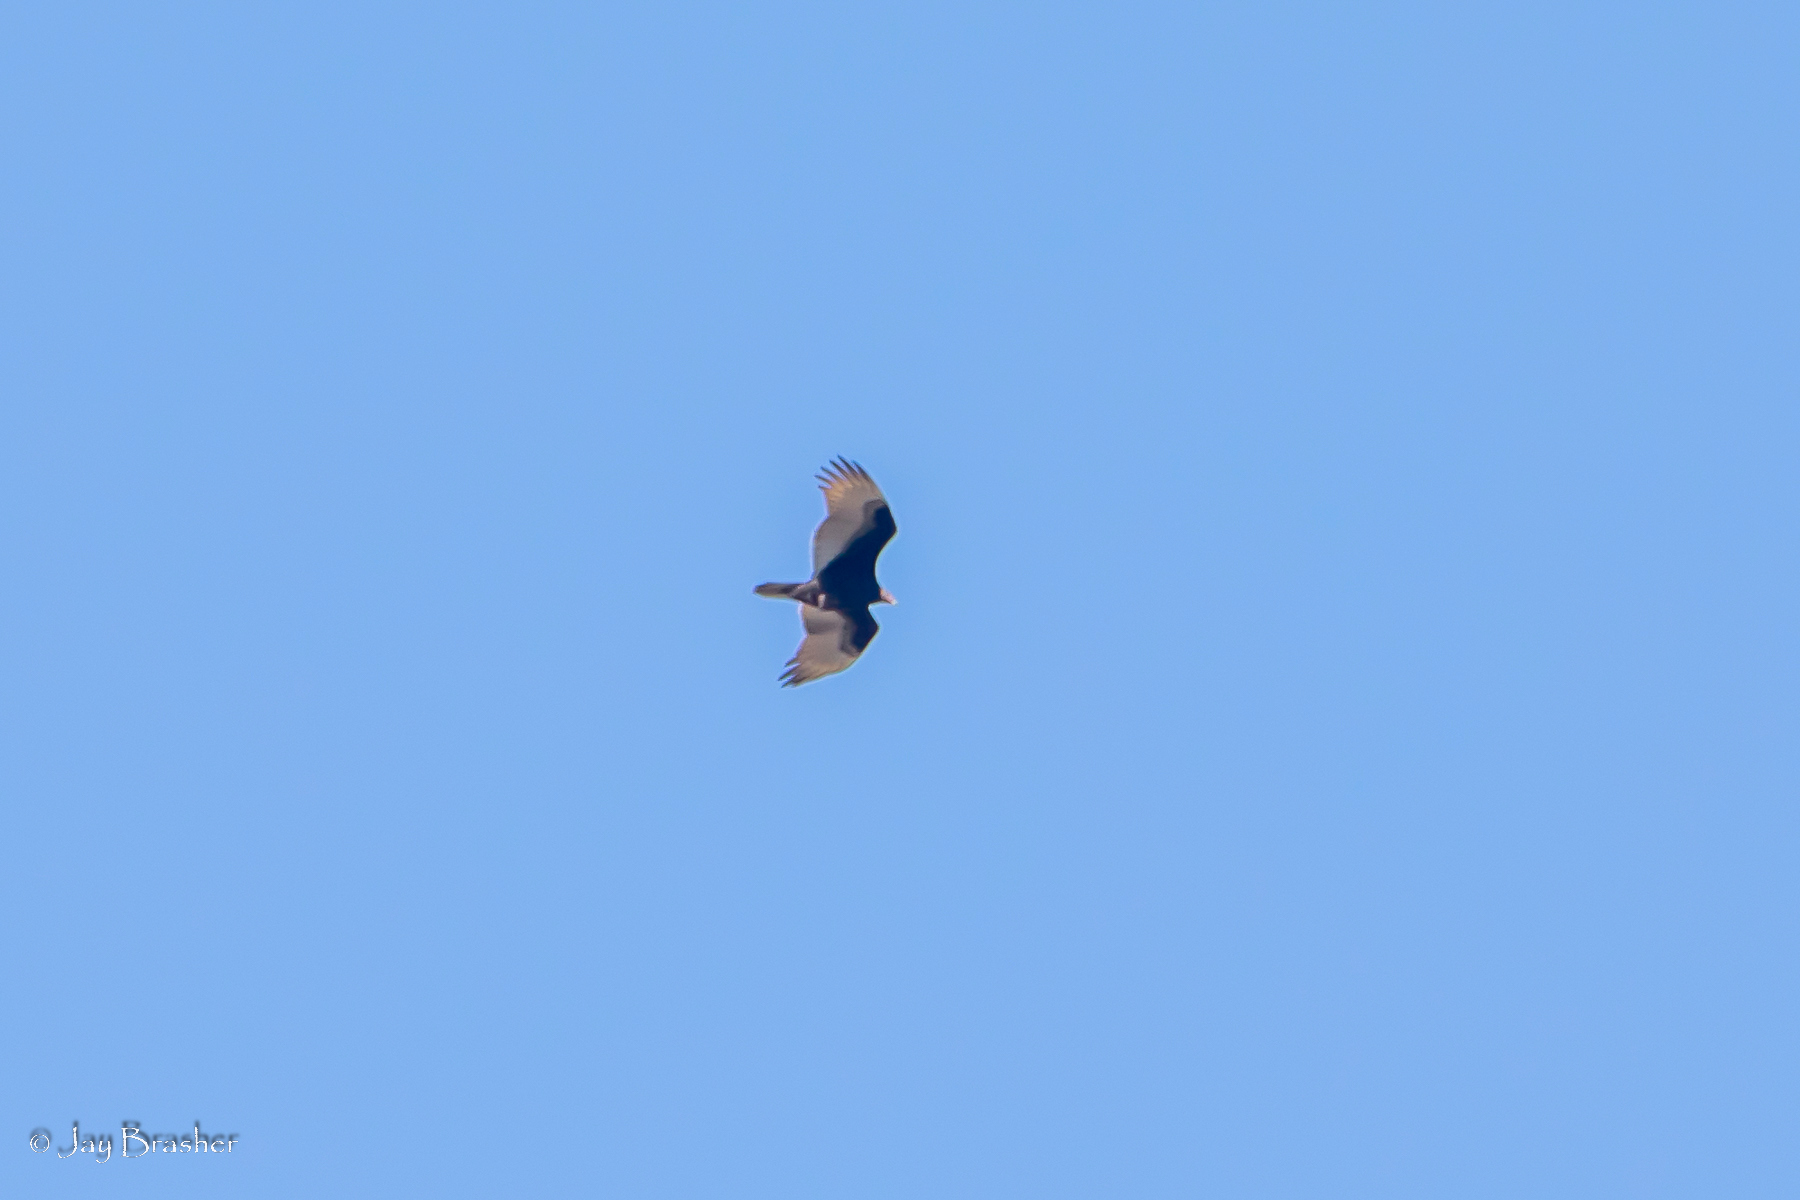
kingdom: Animalia
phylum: Chordata
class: Aves
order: Accipitriformes
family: Cathartidae
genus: Cathartes
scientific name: Cathartes aura
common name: Turkey vulture
